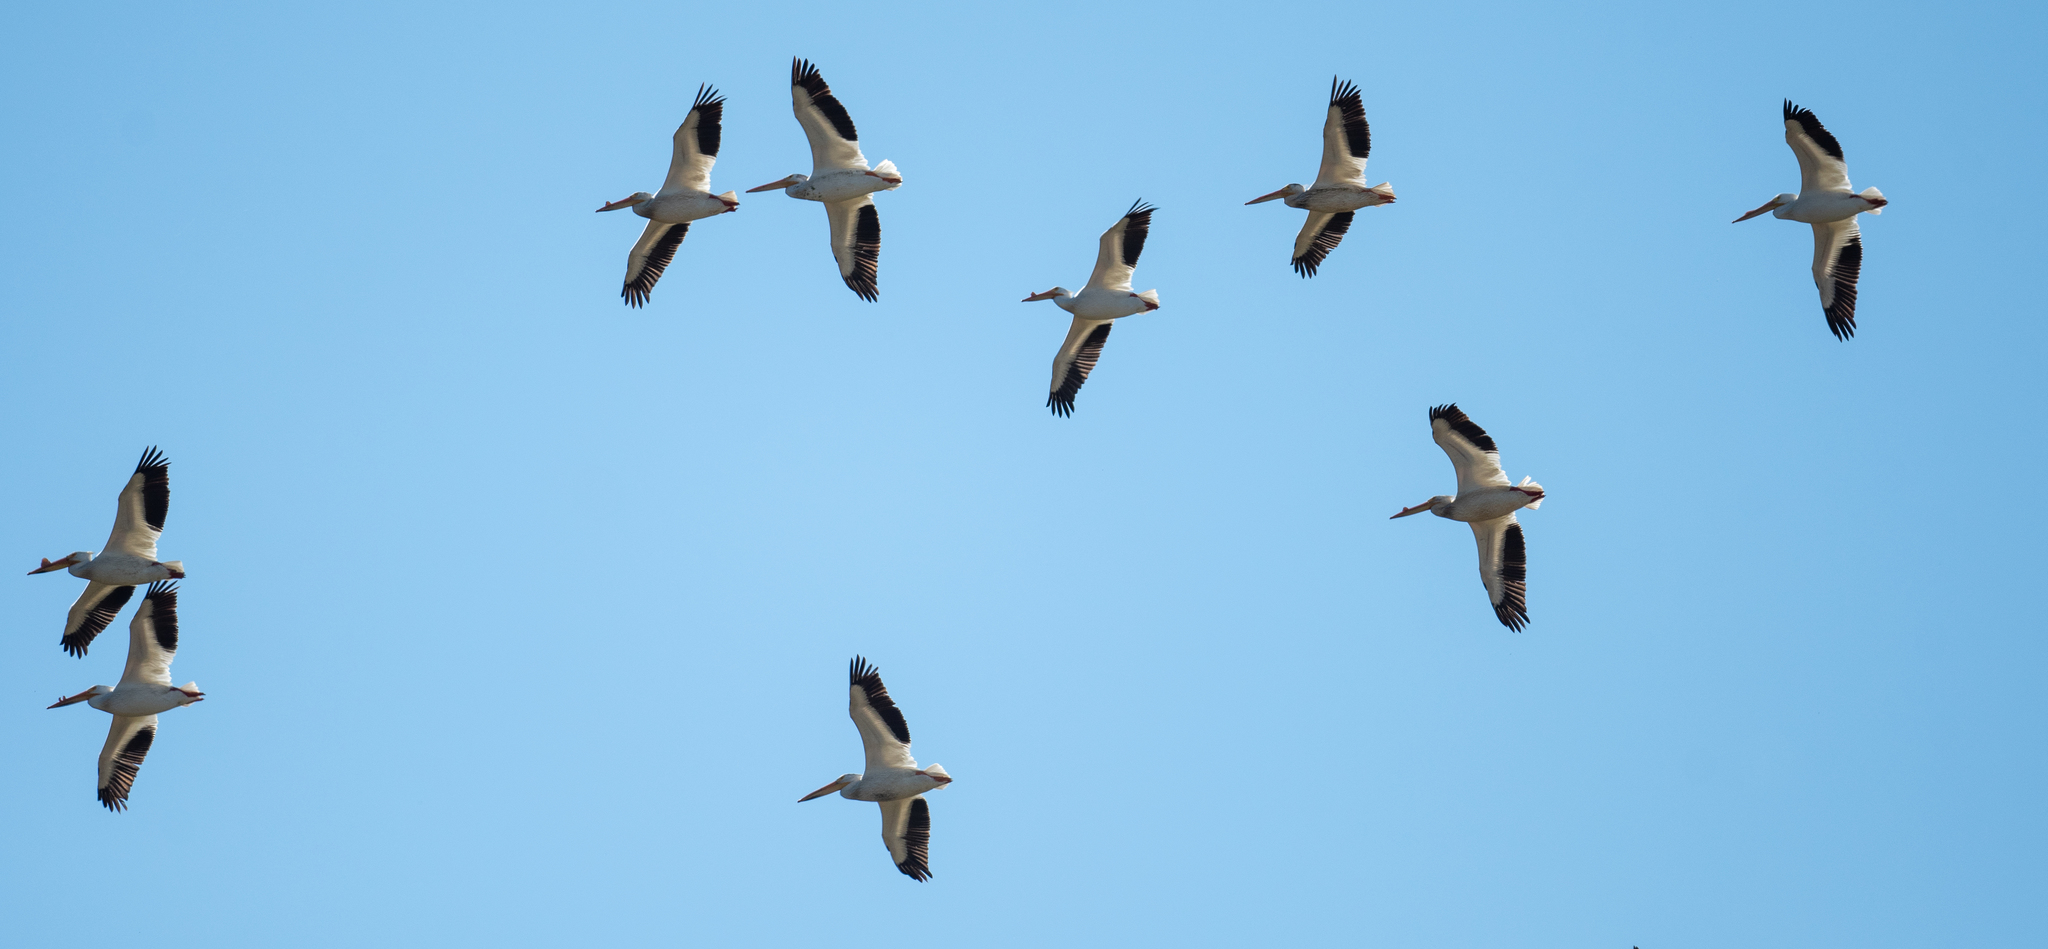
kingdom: Animalia
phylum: Chordata
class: Aves
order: Pelecaniformes
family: Pelecanidae
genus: Pelecanus
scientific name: Pelecanus erythrorhynchos
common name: American white pelican
